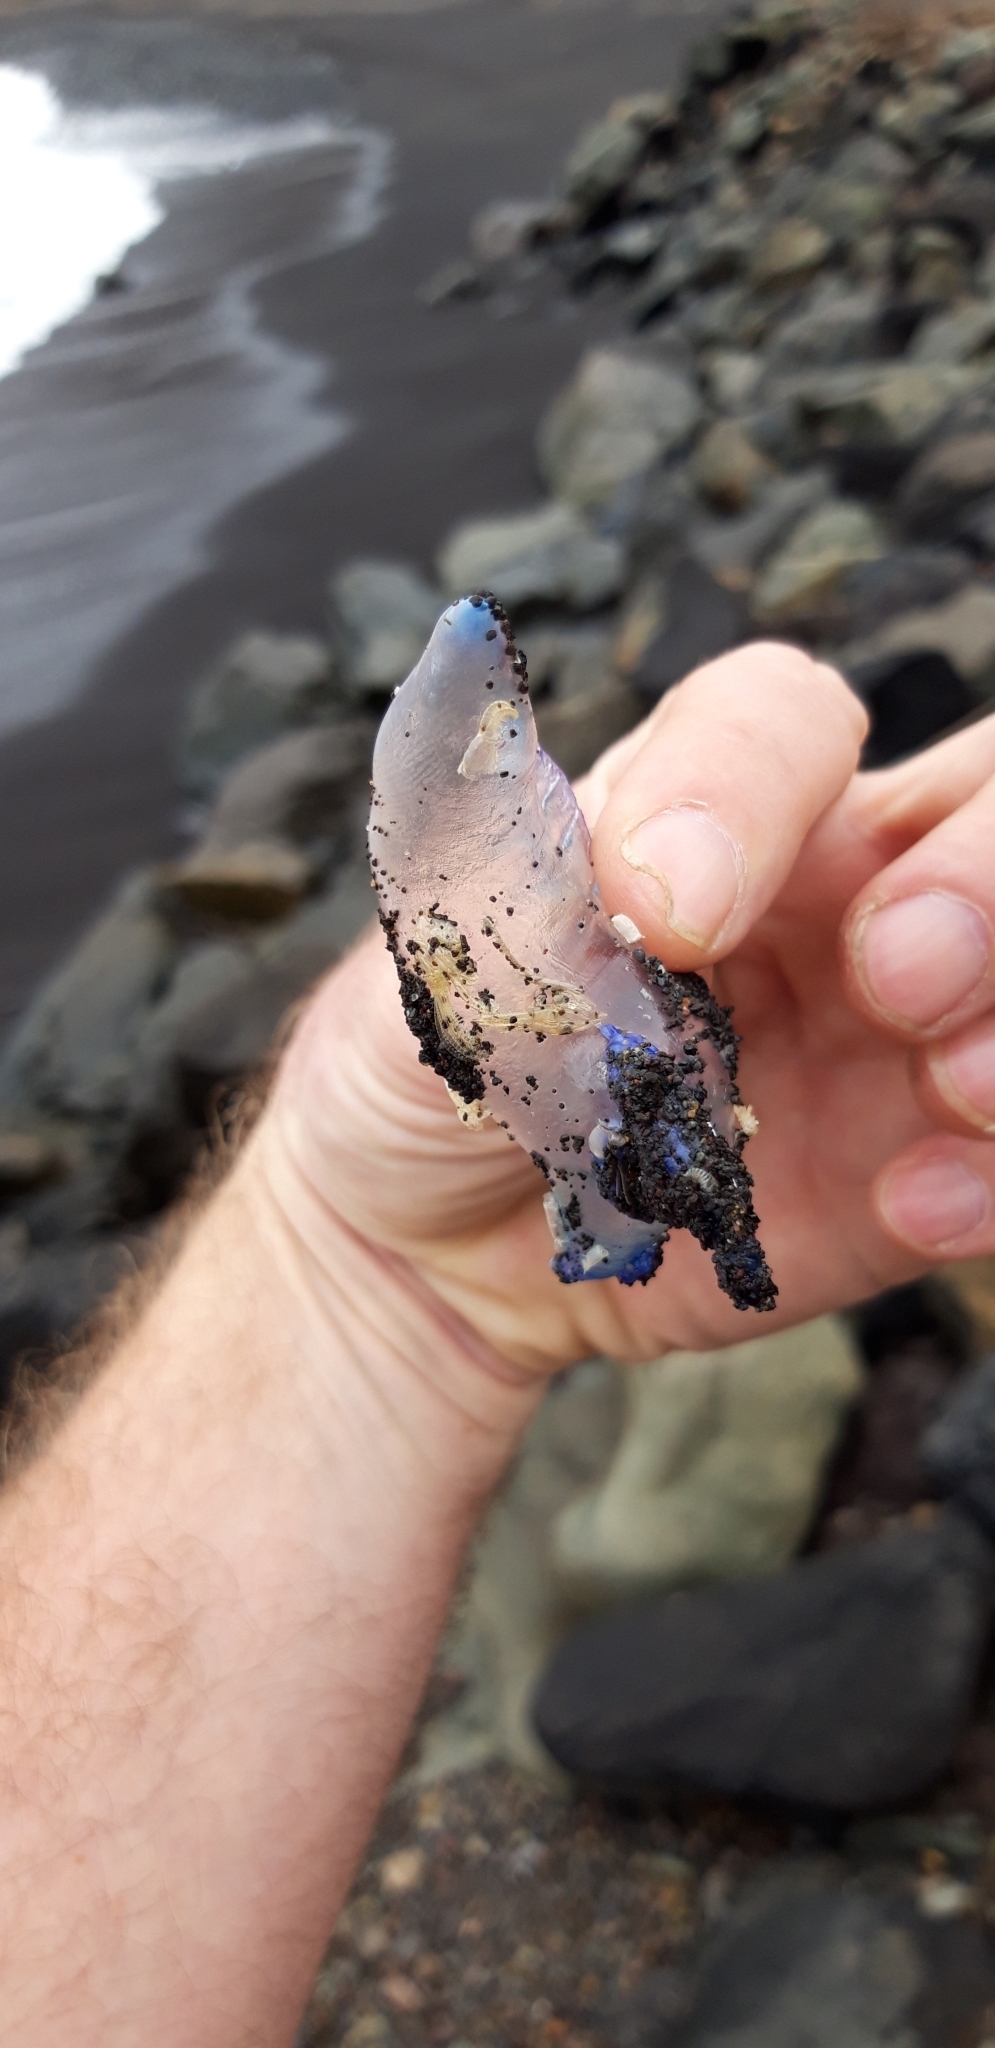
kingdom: Animalia
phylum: Cnidaria
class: Hydrozoa
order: Siphonophorae
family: Physaliidae
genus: Physalia
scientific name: Physalia physalis
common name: Portuguese man-of-war
